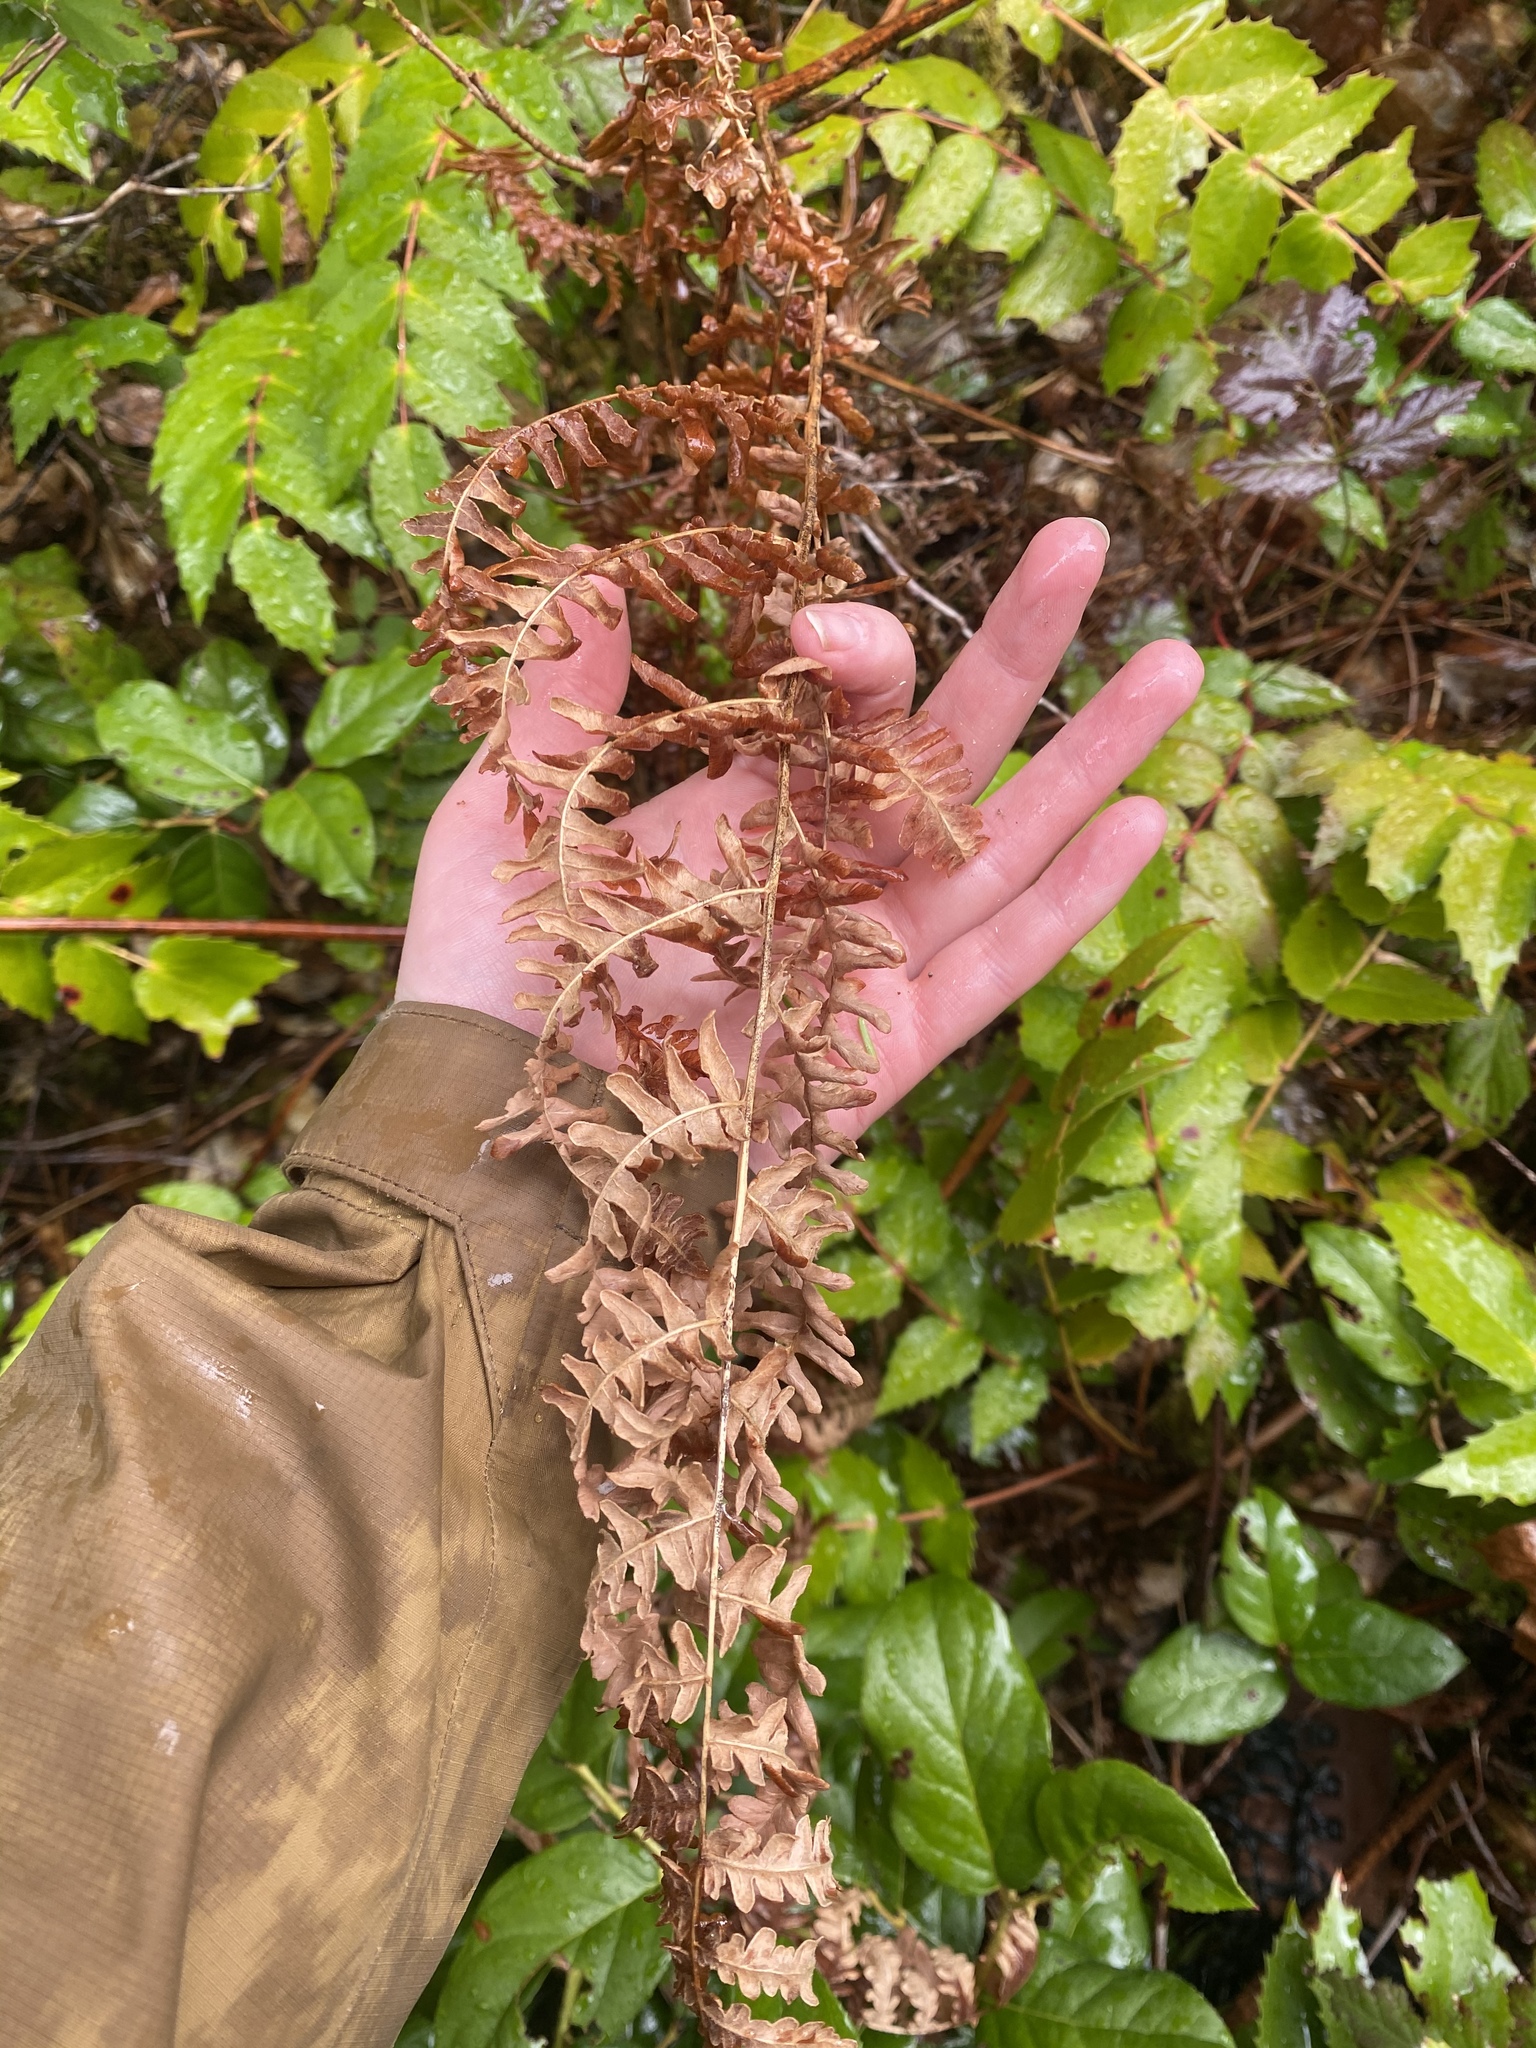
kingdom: Plantae
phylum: Tracheophyta
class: Polypodiopsida
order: Polypodiales
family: Dennstaedtiaceae
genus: Pteridium
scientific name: Pteridium aquilinum
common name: Bracken
